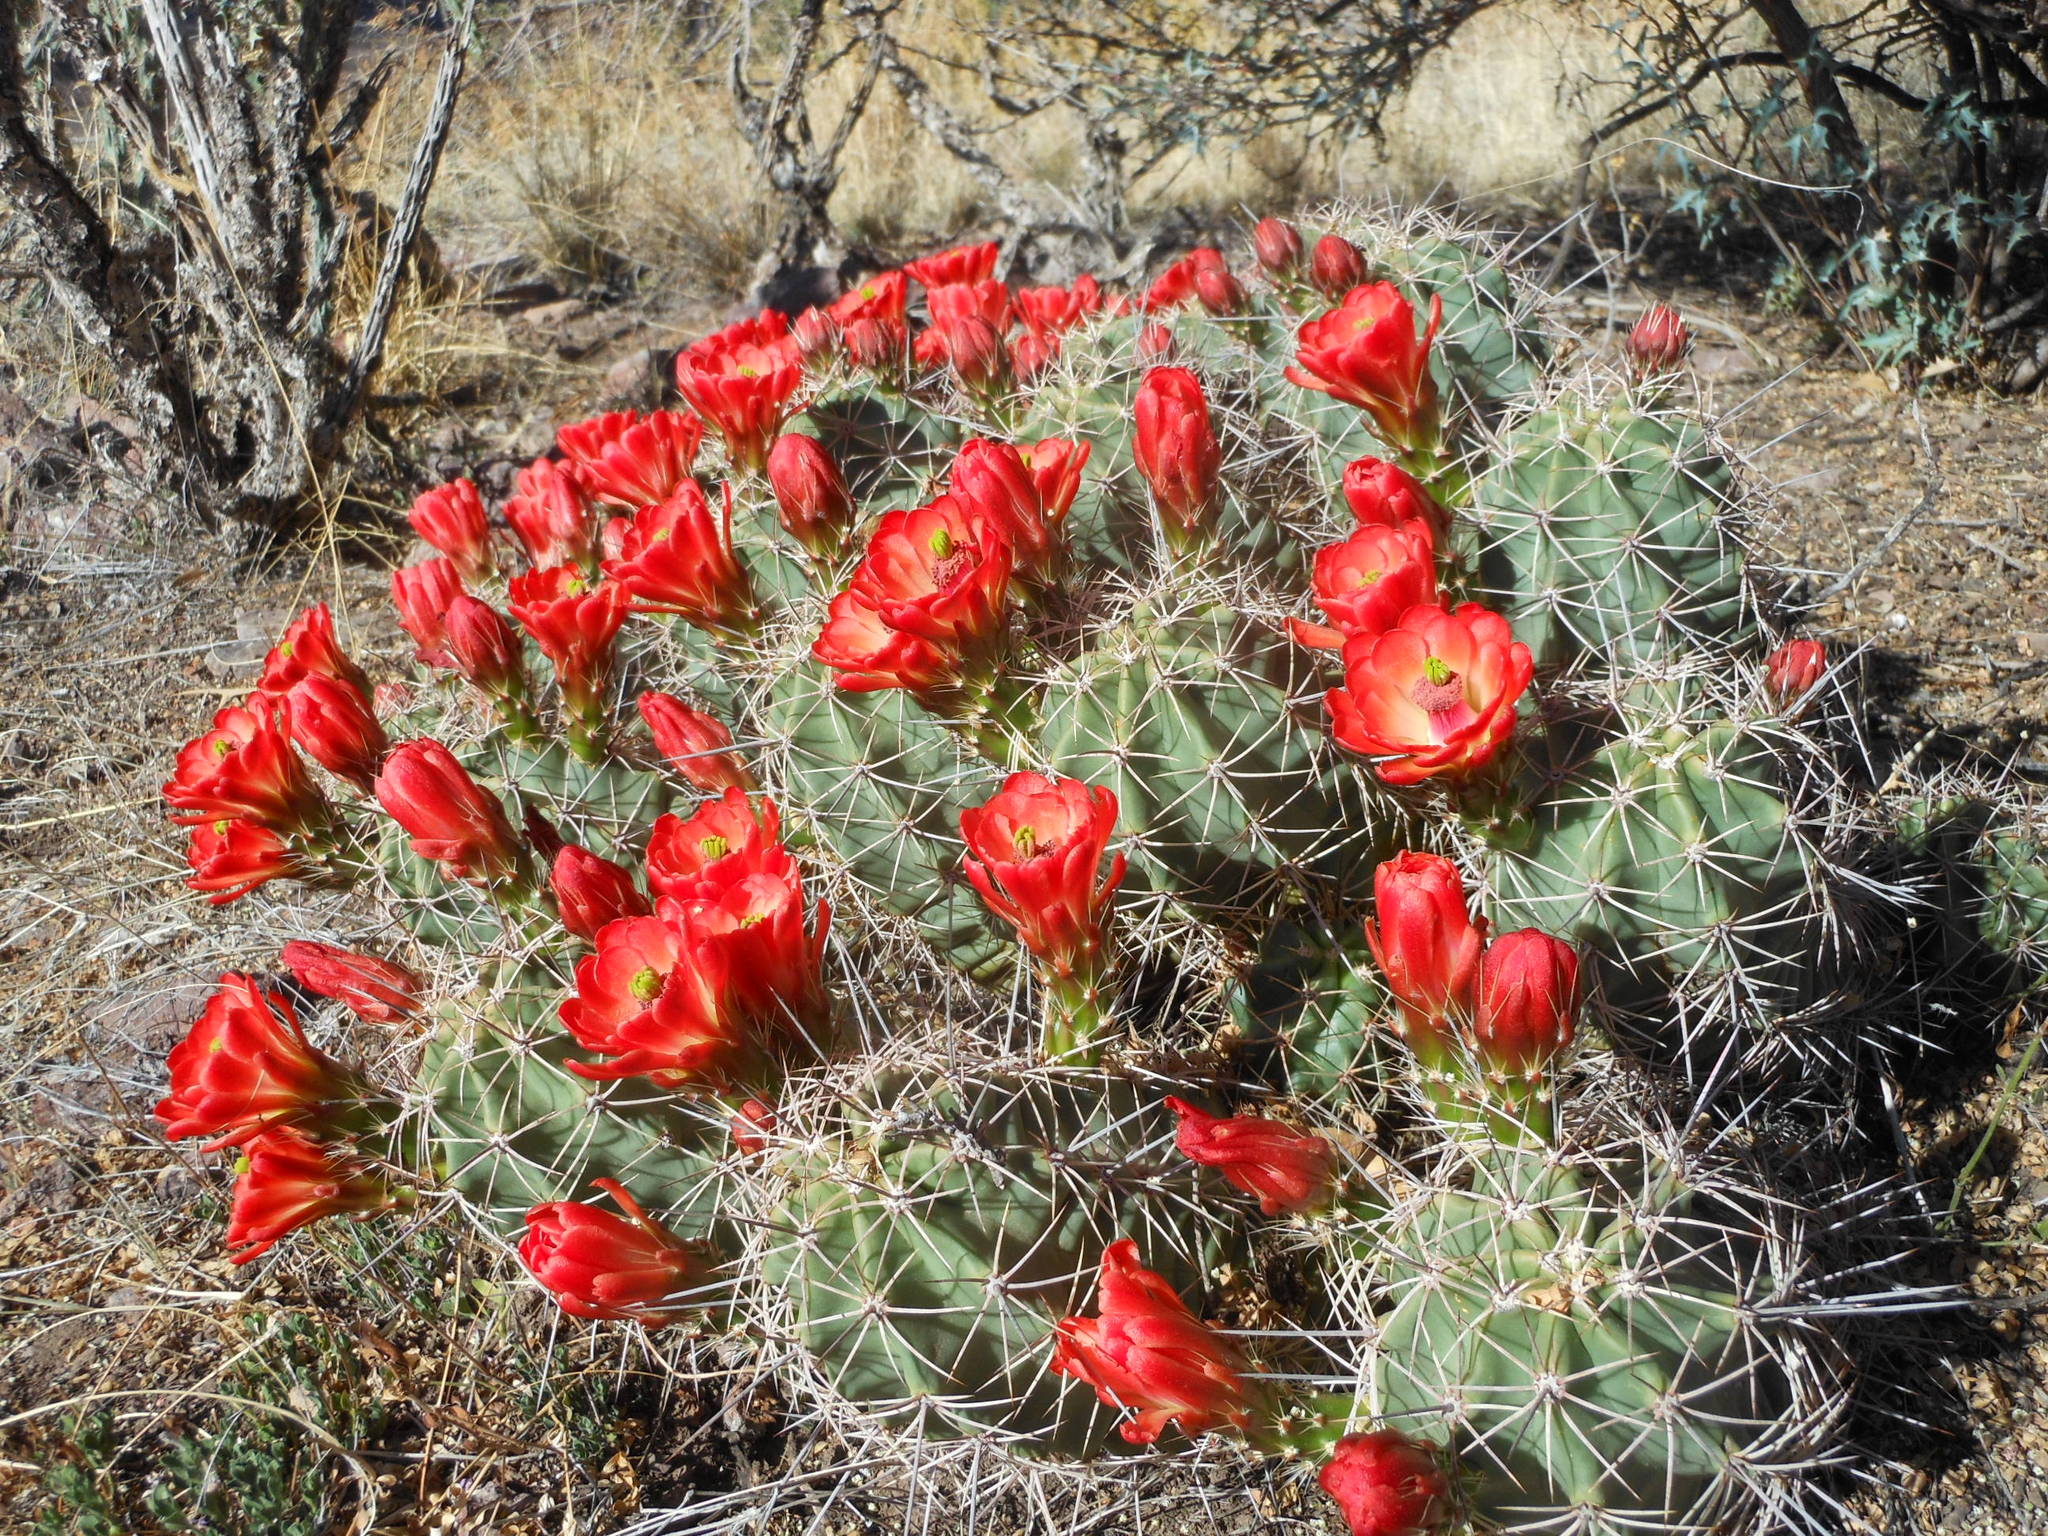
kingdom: Plantae
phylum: Tracheophyta
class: Magnoliopsida
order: Caryophyllales
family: Cactaceae
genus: Echinocereus
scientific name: Echinocereus coccineus
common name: Scarlet hedgehog cactus
